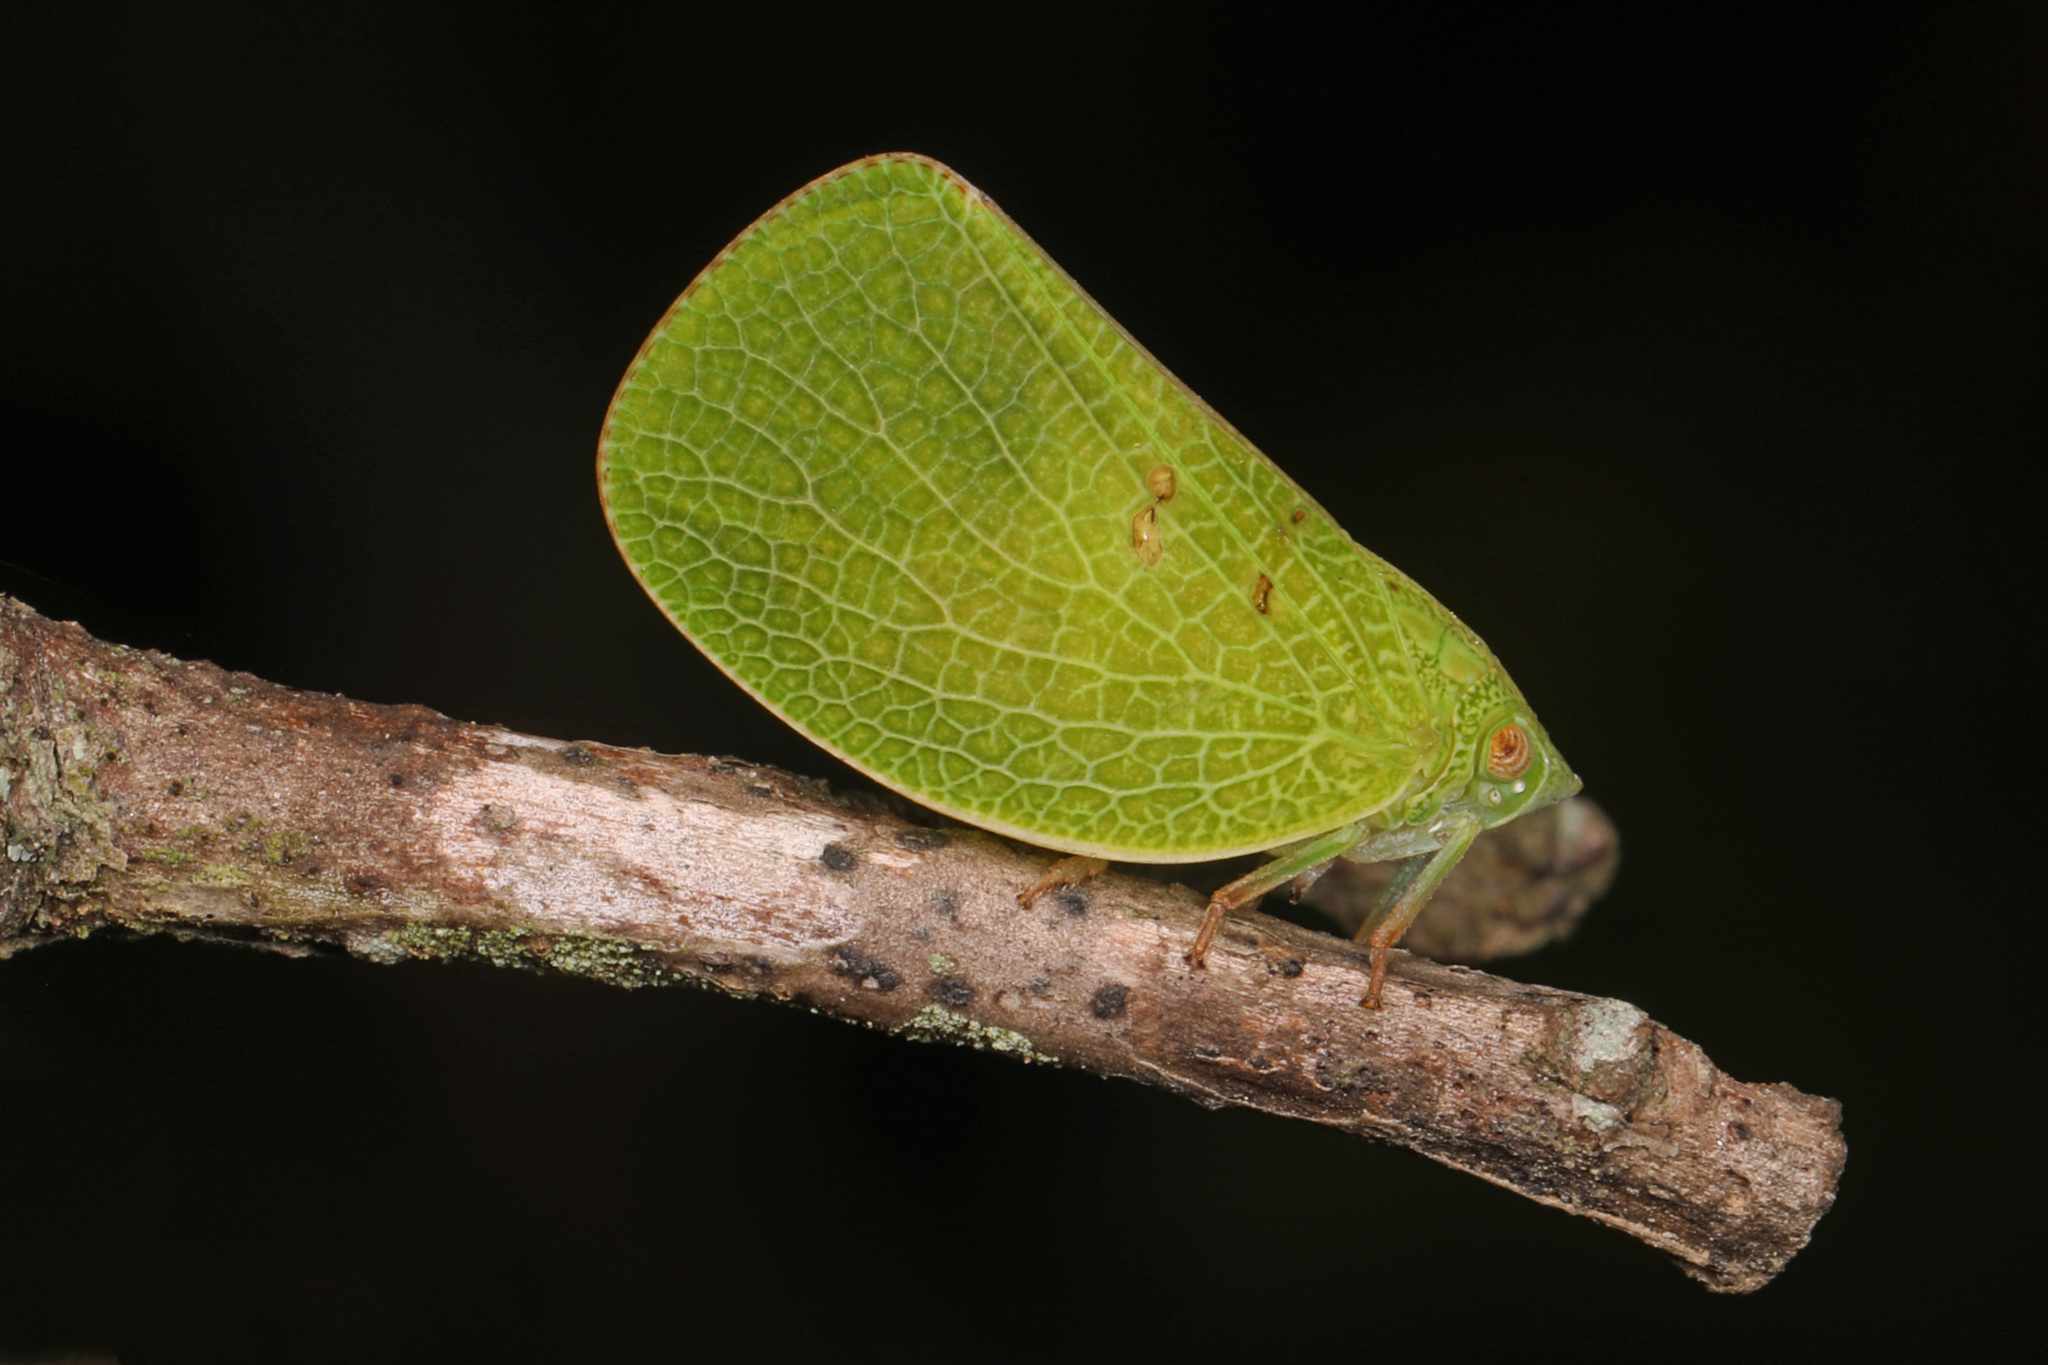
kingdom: Animalia
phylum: Arthropoda
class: Insecta
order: Hemiptera
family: Acanaloniidae
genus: Acanalonia
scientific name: Acanalonia conica
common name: Green cone-headed planthopper
